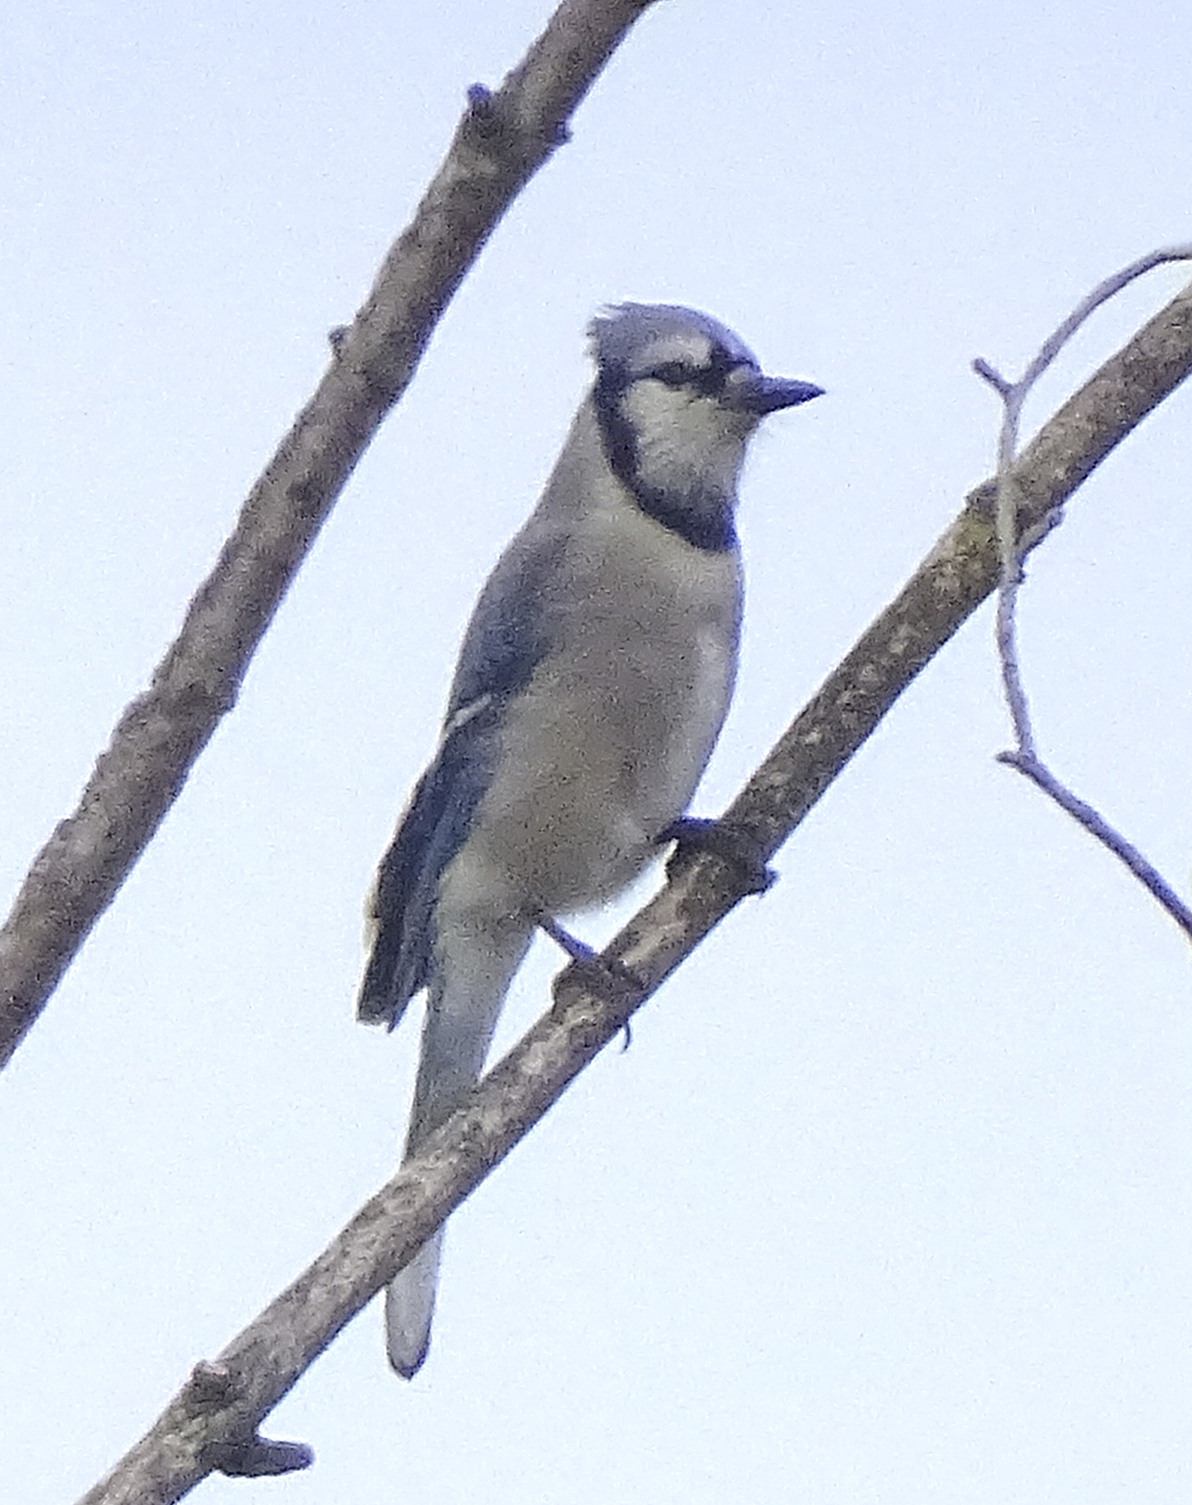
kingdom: Animalia
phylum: Chordata
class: Aves
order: Passeriformes
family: Corvidae
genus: Cyanocitta
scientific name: Cyanocitta cristata
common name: Blue jay
